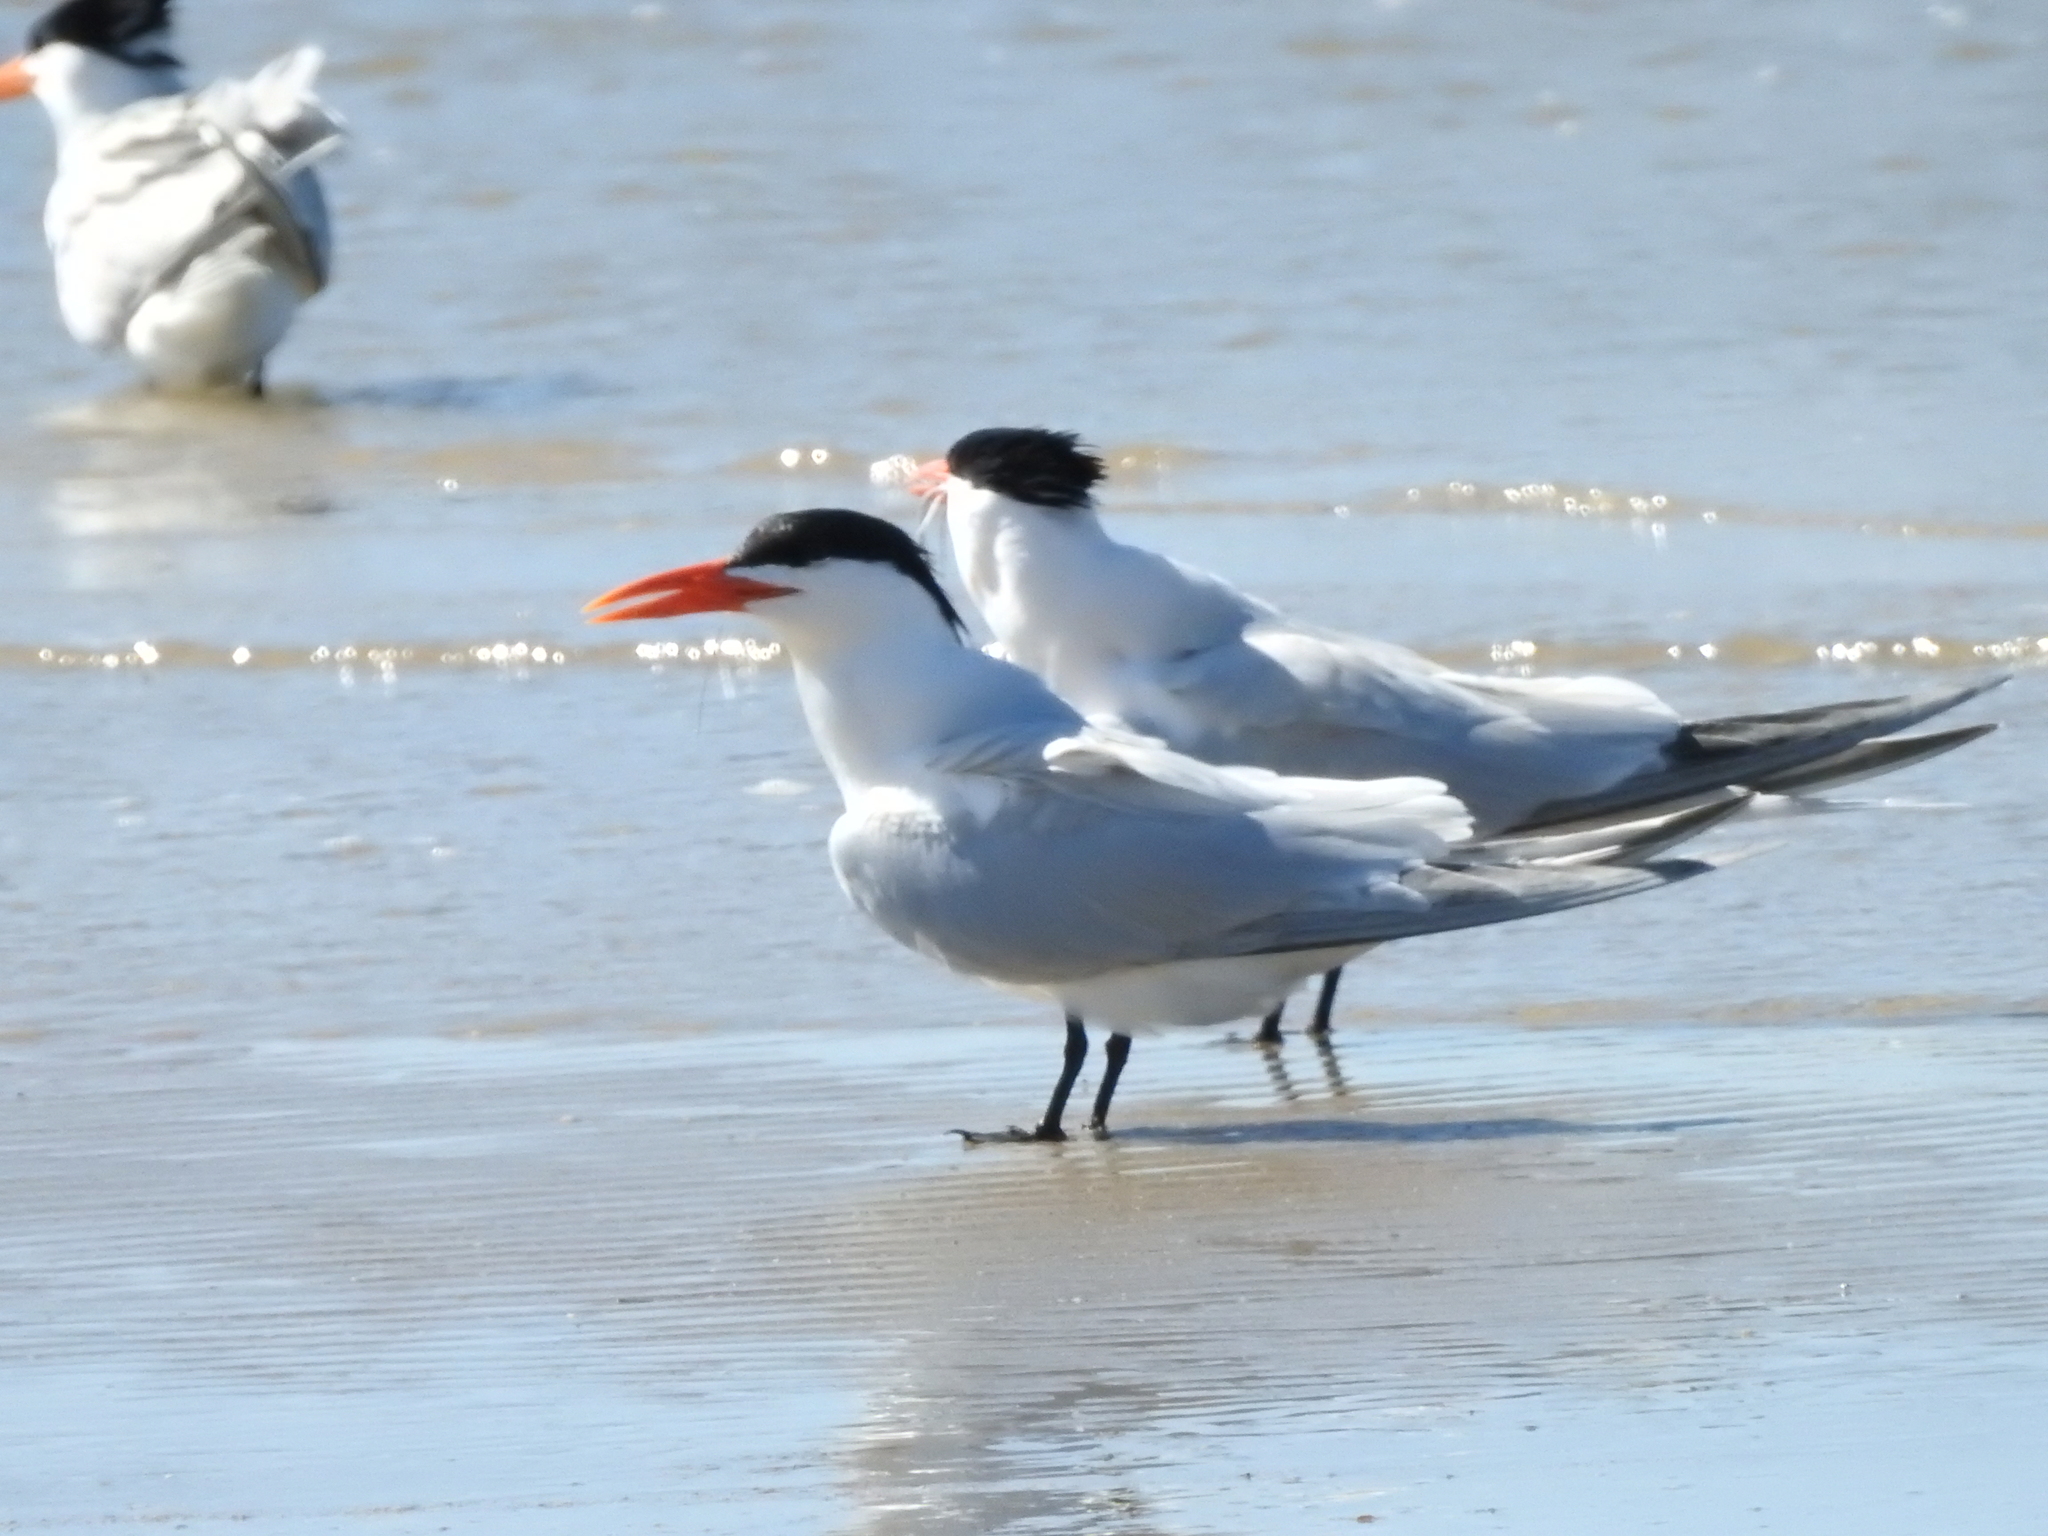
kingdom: Animalia
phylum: Chordata
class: Aves
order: Charadriiformes
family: Laridae
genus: Thalasseus
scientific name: Thalasseus maximus
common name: Royal tern
